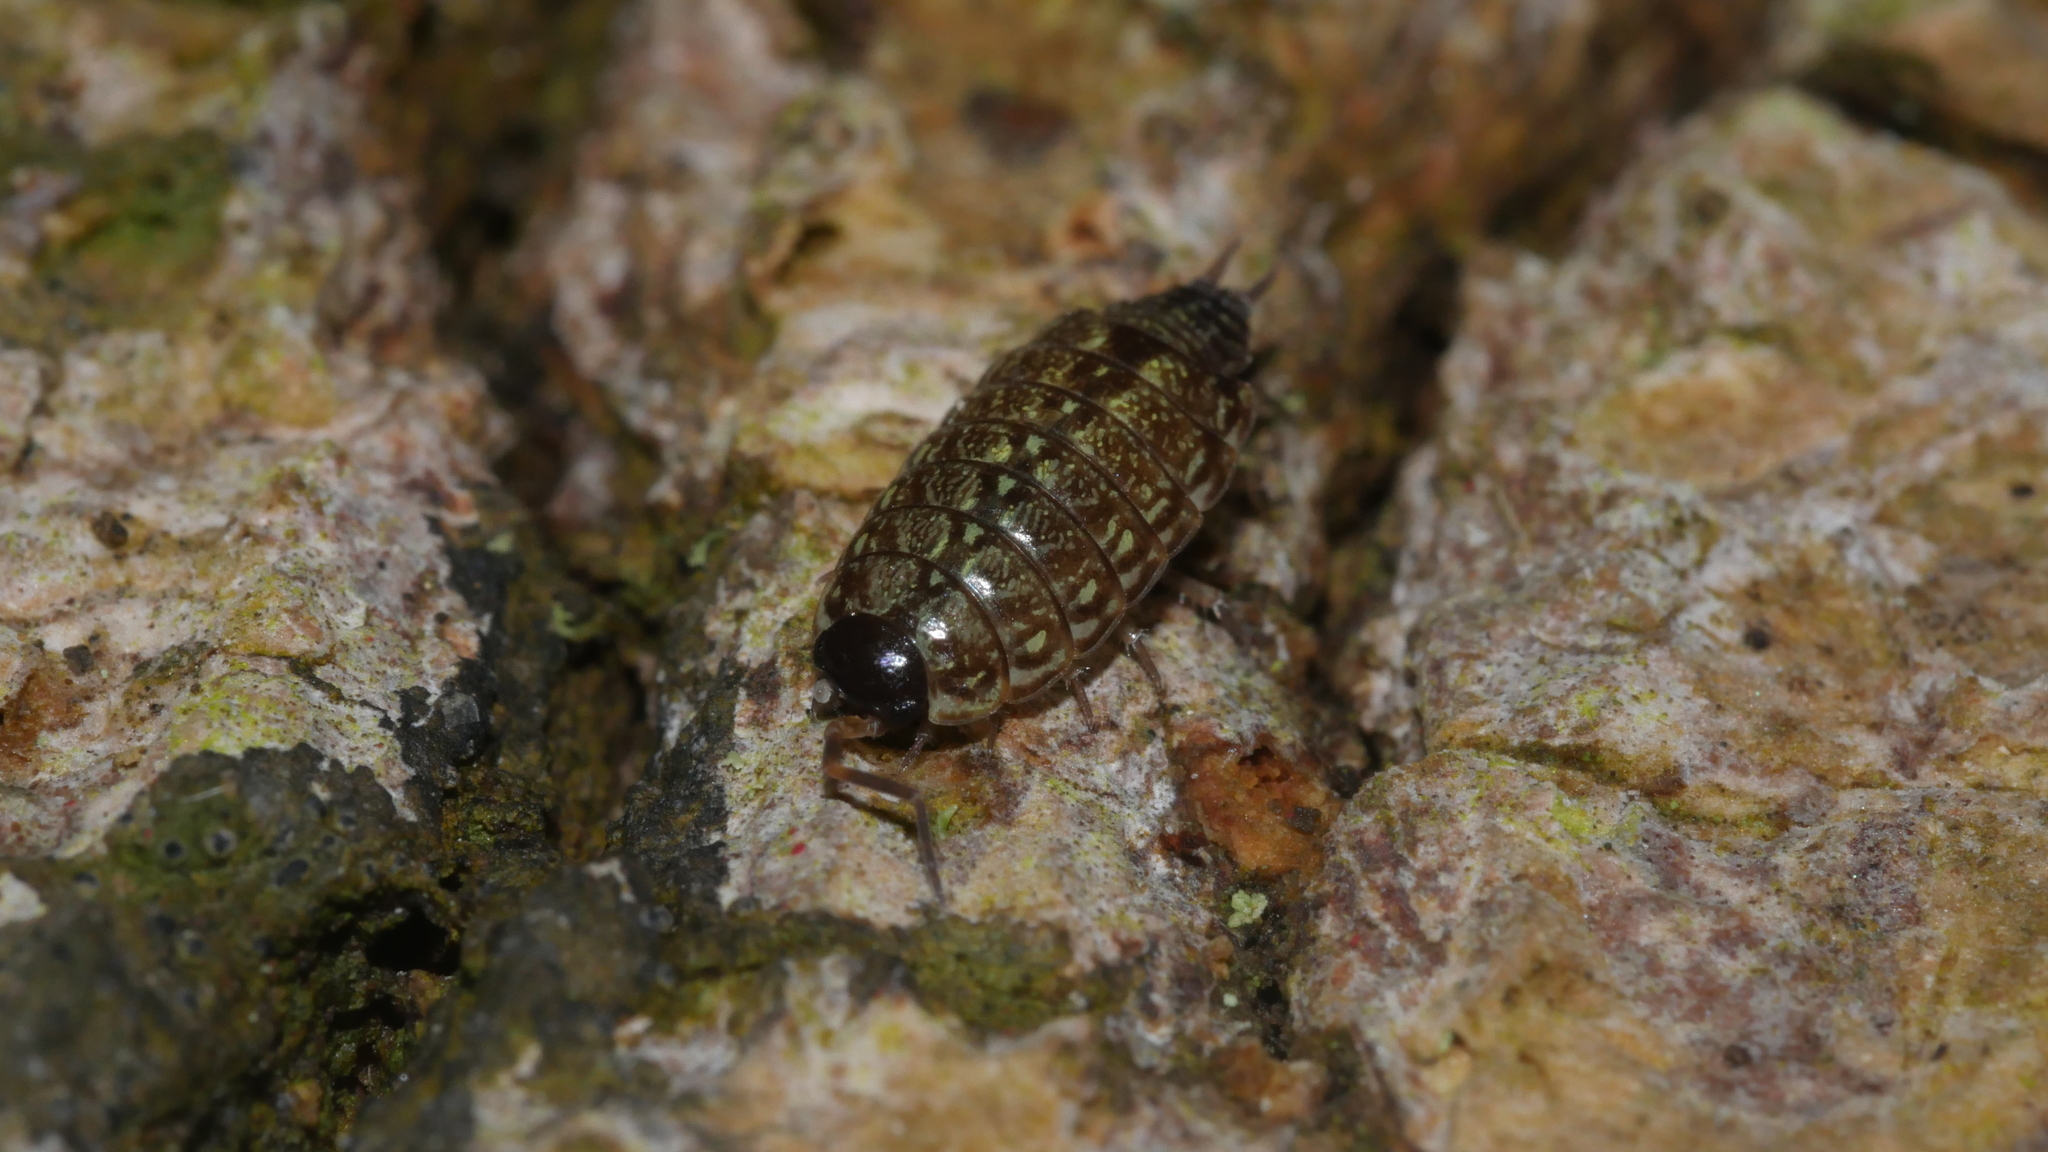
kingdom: Animalia
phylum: Arthropoda
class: Malacostraca
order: Isopoda
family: Philosciidae
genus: Philoscia
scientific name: Philoscia muscorum
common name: Common striped woodlouse
